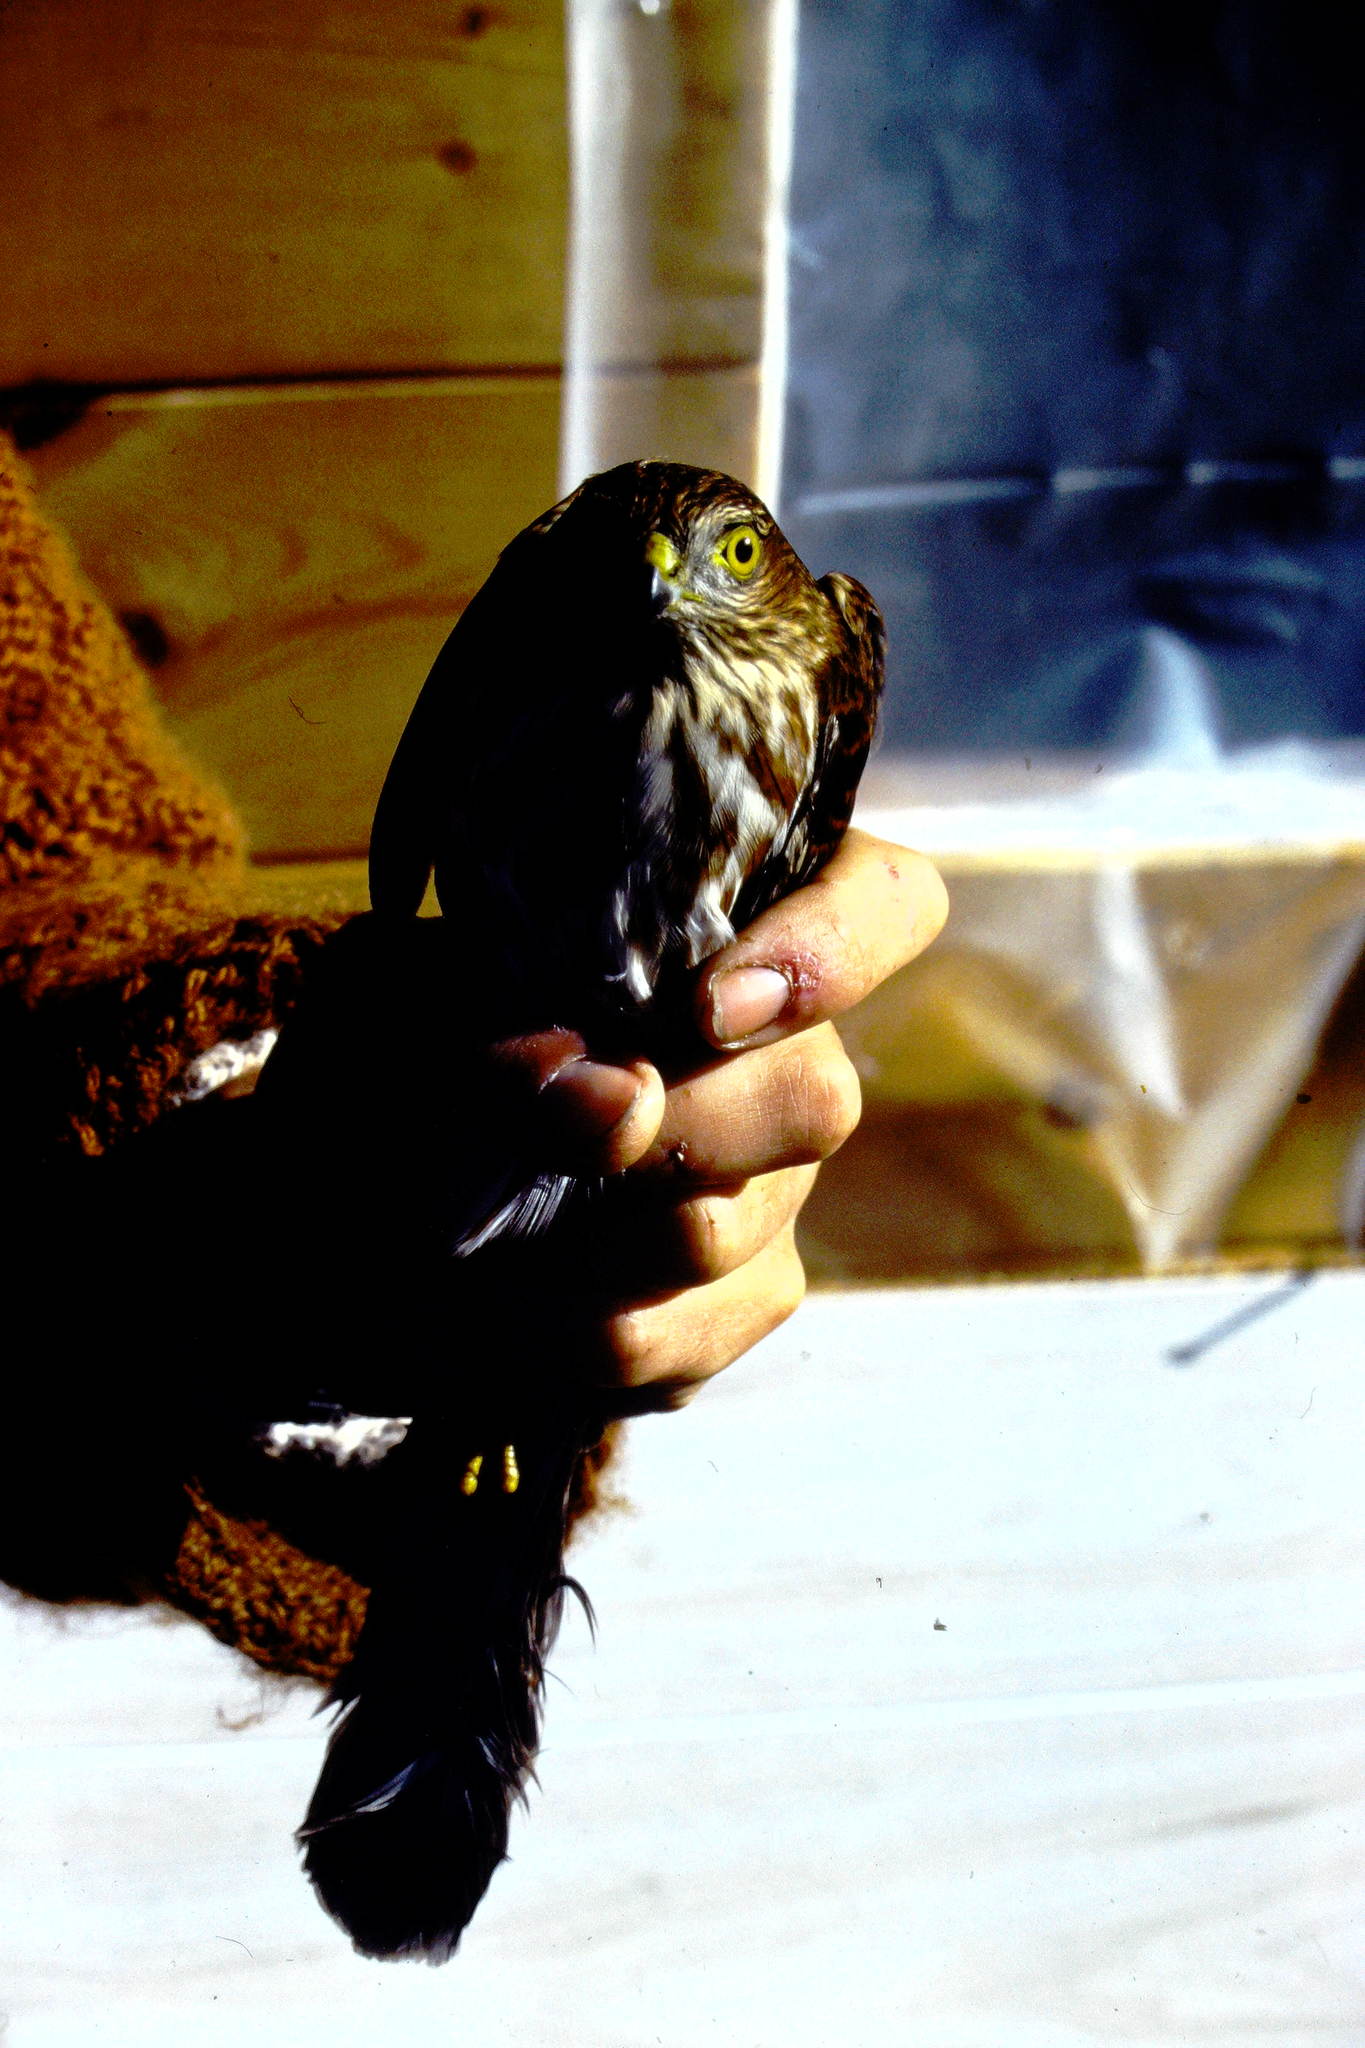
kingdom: Animalia
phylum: Chordata
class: Aves
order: Accipitriformes
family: Accipitridae
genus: Accipiter
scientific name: Accipiter striatus
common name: Sharp-shinned hawk
